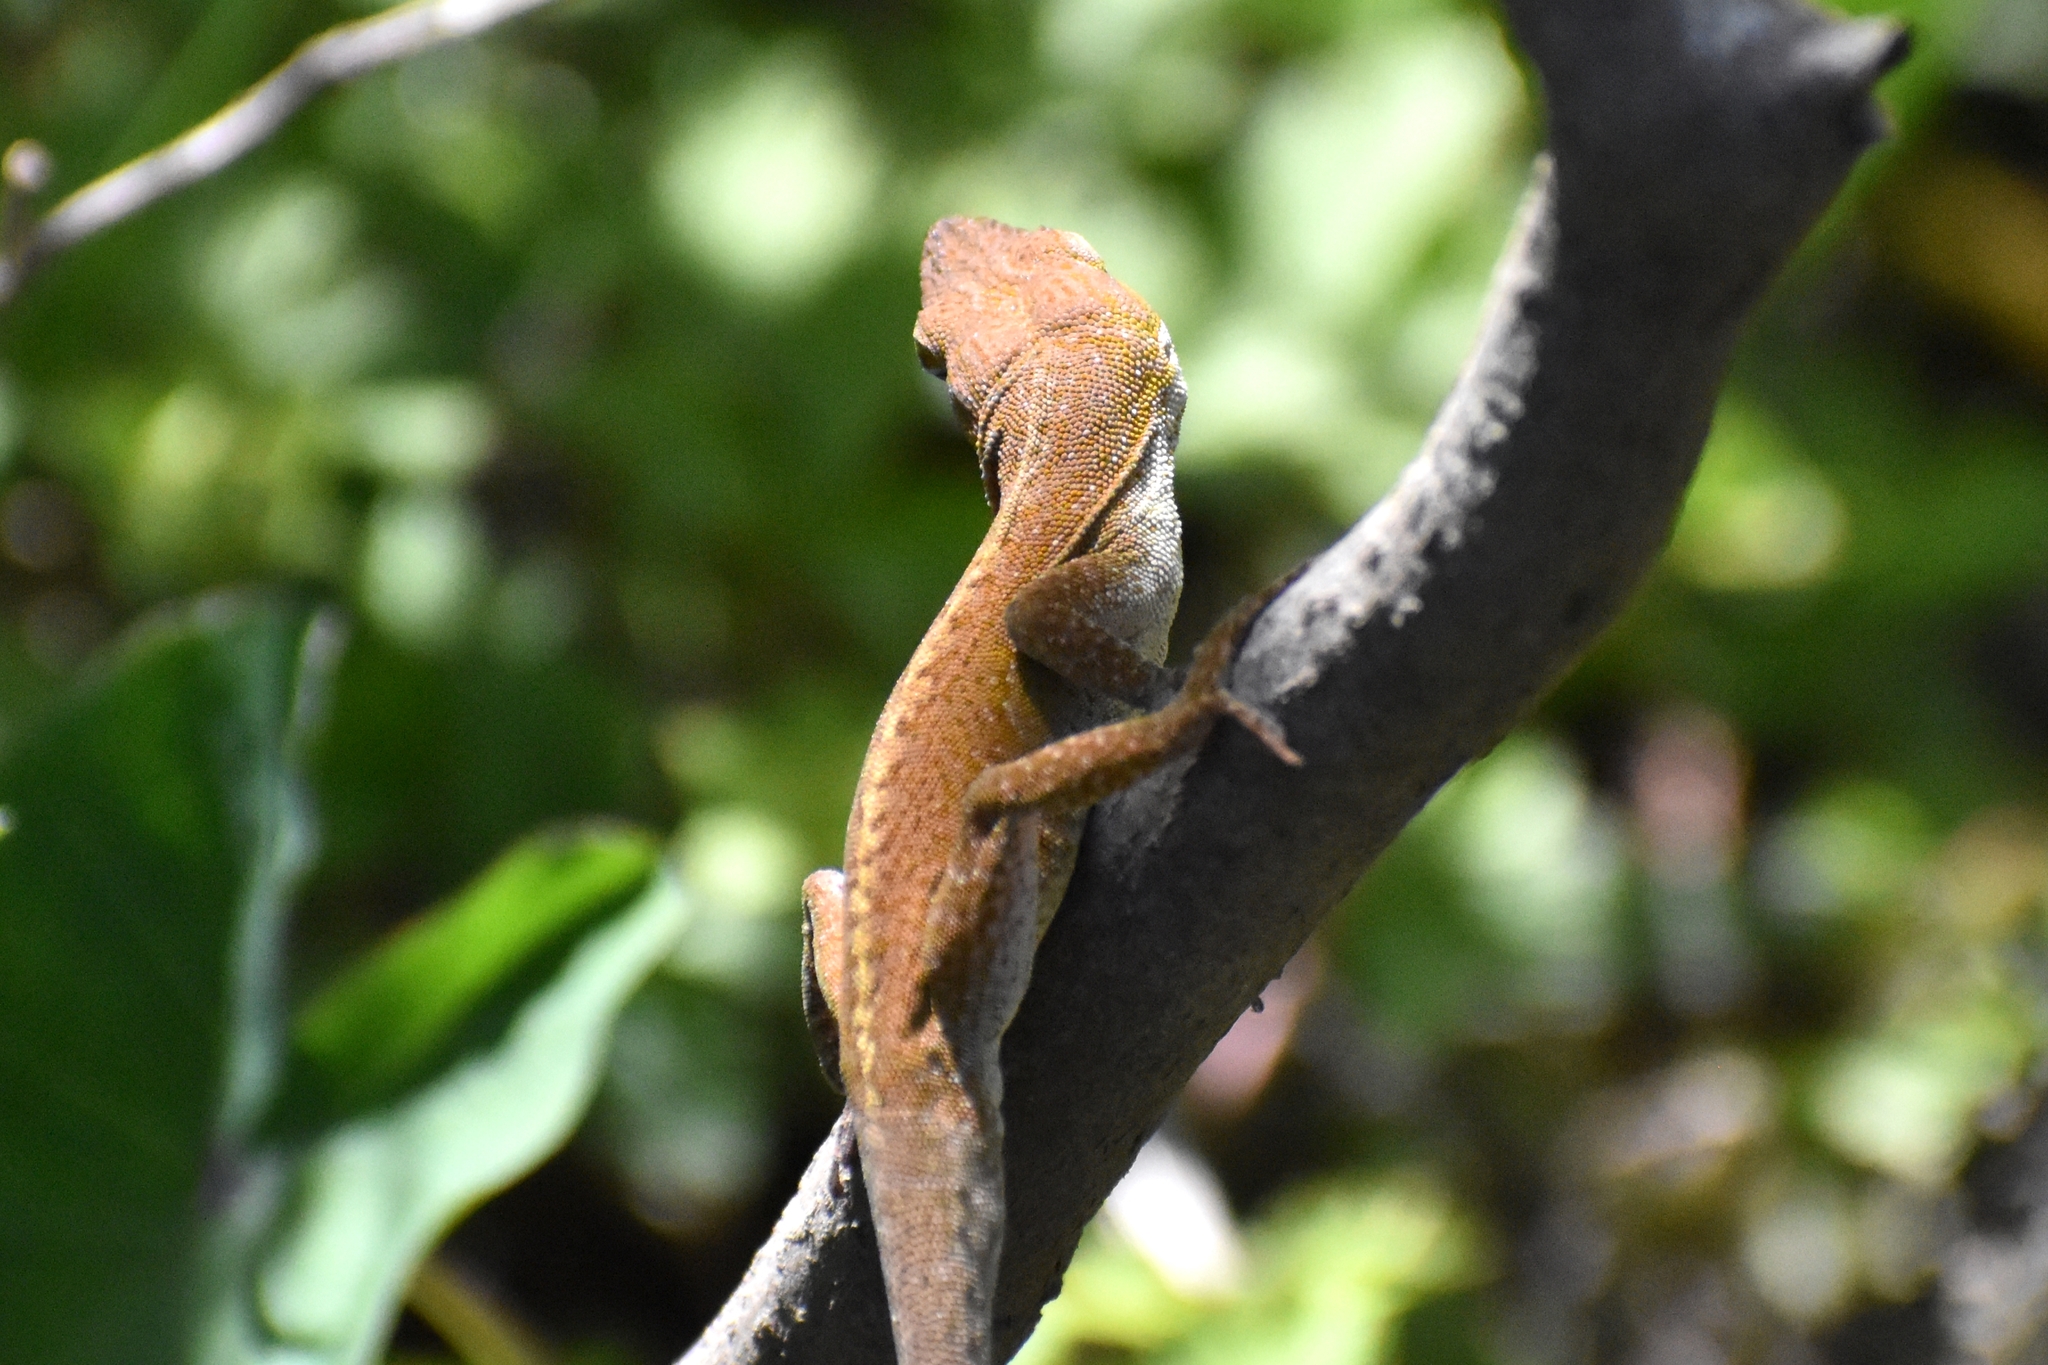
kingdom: Animalia
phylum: Chordata
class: Squamata
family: Dactyloidae
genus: Anolis
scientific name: Anolis carolinensis
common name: Green anole
